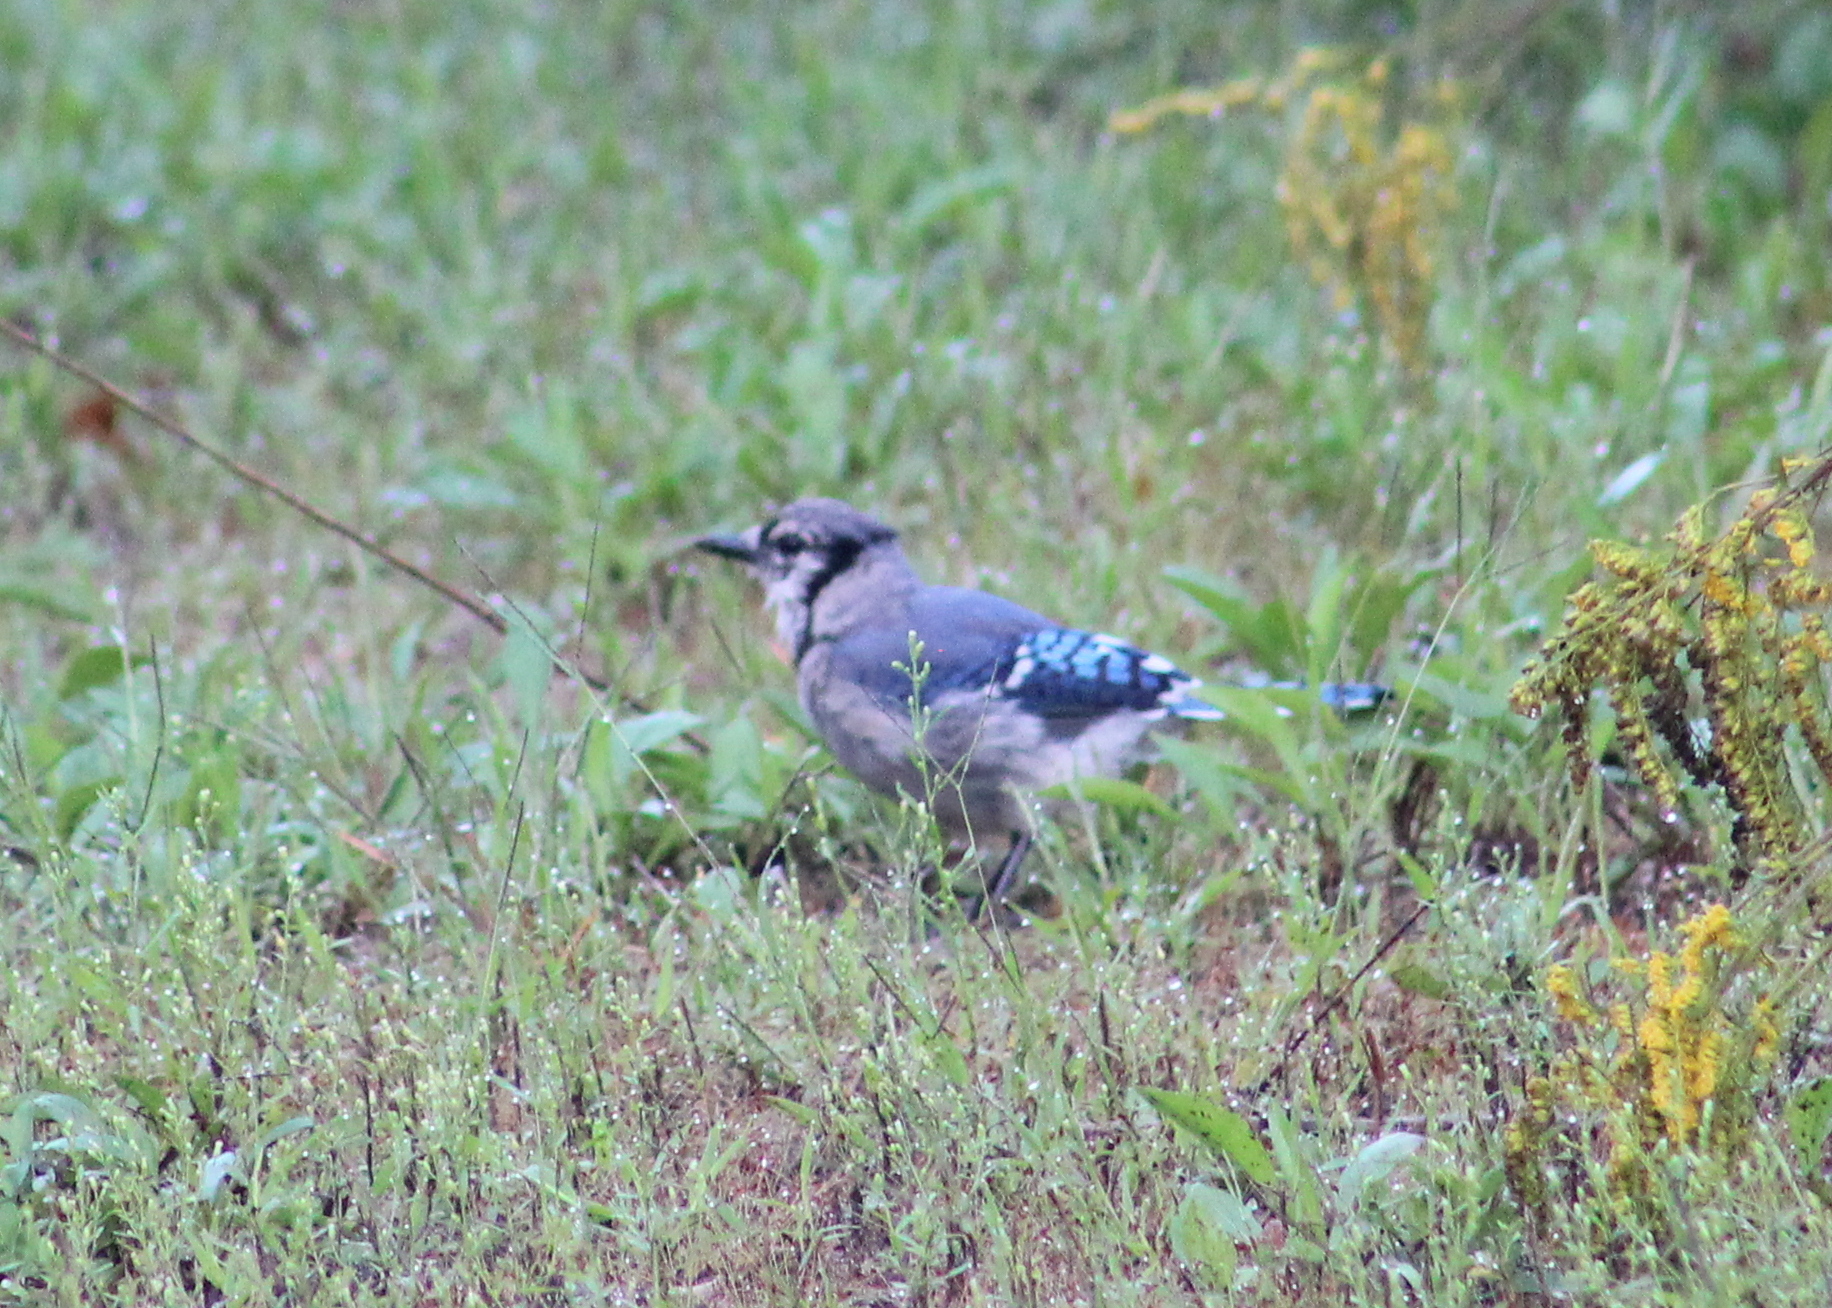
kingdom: Animalia
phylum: Chordata
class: Aves
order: Passeriformes
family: Corvidae
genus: Cyanocitta
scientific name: Cyanocitta cristata
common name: Blue jay
